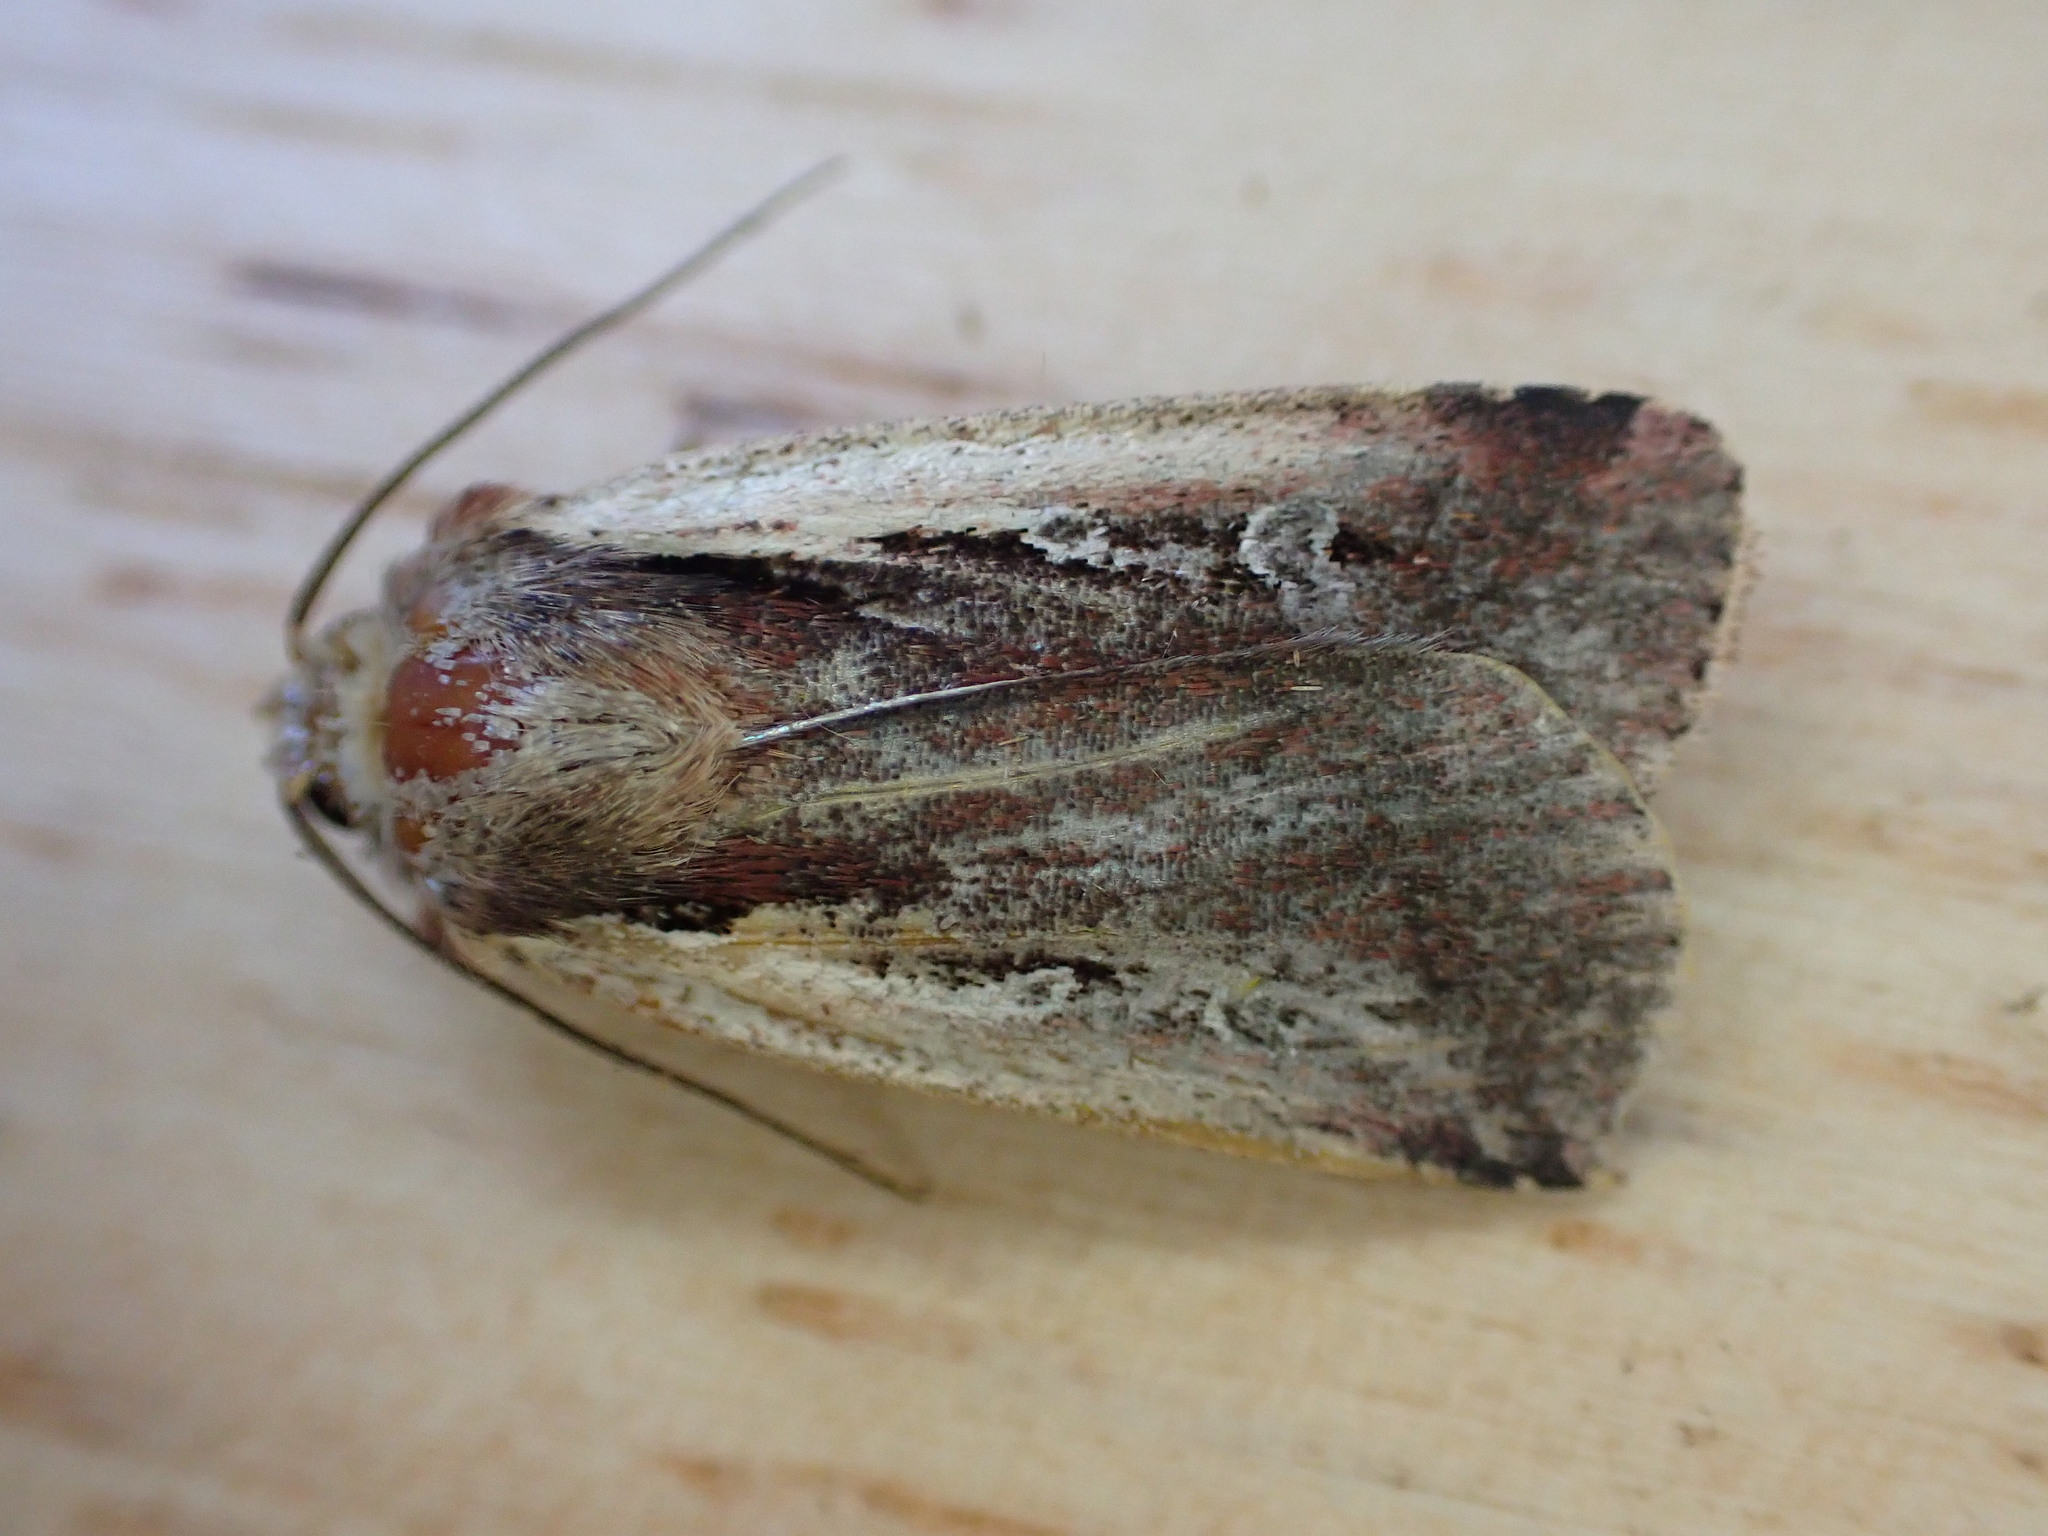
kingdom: Animalia
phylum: Arthropoda
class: Insecta
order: Lepidoptera
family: Noctuidae
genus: Ochropleura
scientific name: Ochropleura plecta
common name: Flame shoulder
